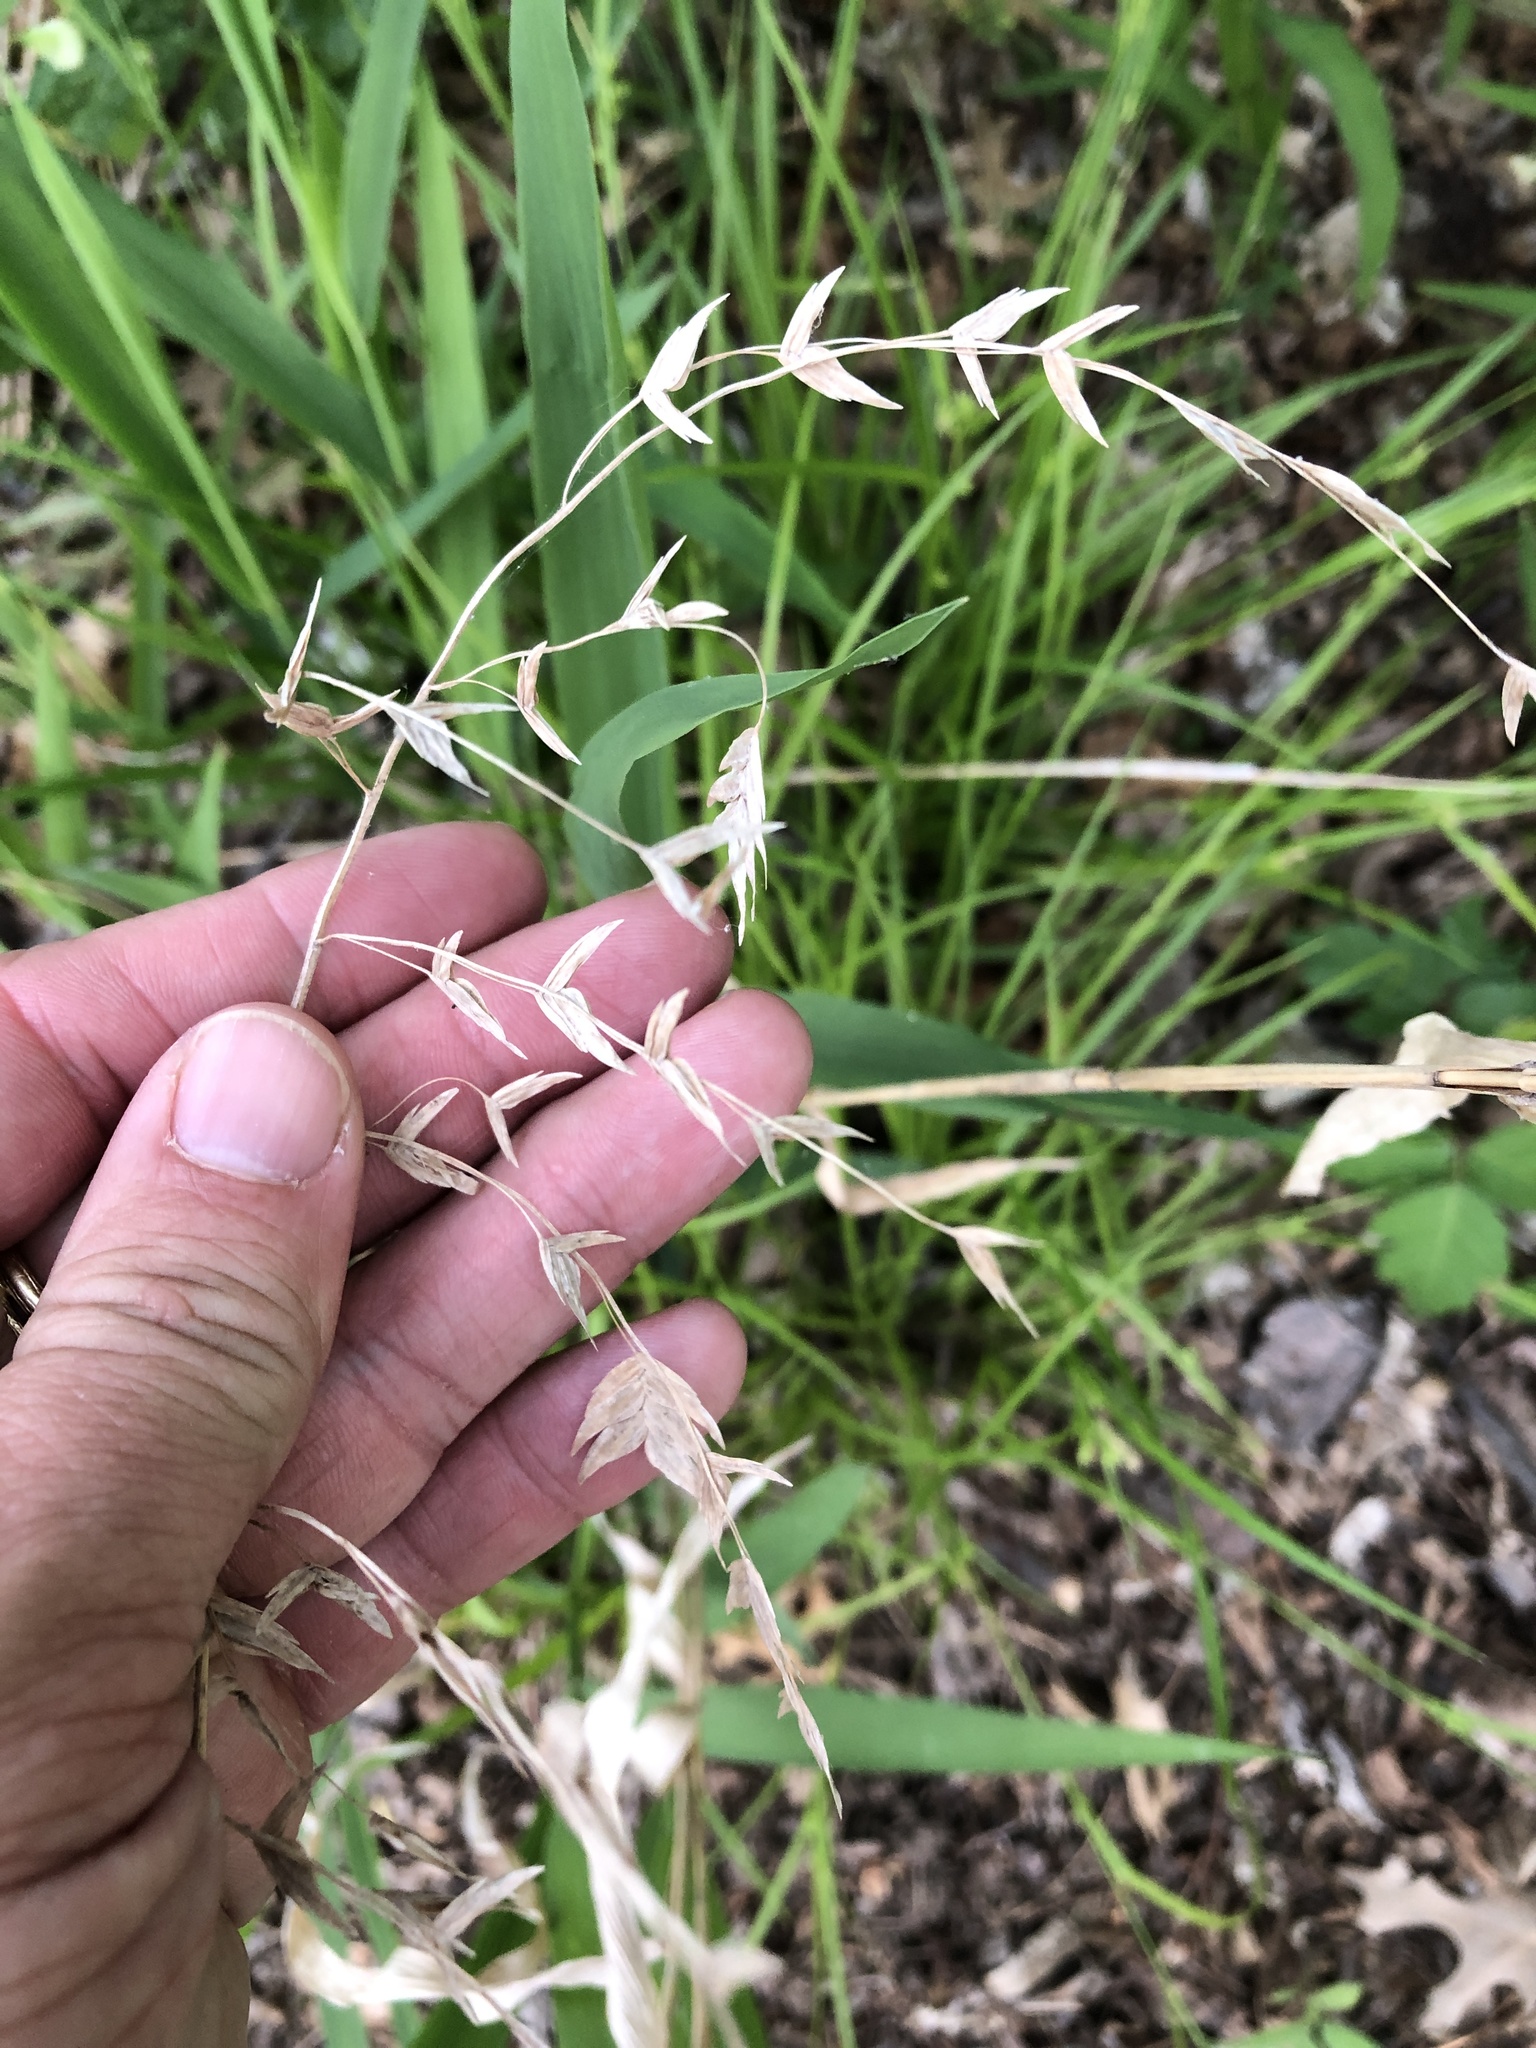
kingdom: Plantae
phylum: Tracheophyta
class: Liliopsida
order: Poales
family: Poaceae
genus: Chasmanthium
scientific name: Chasmanthium latifolium
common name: Broad-leaved chasmanthium
